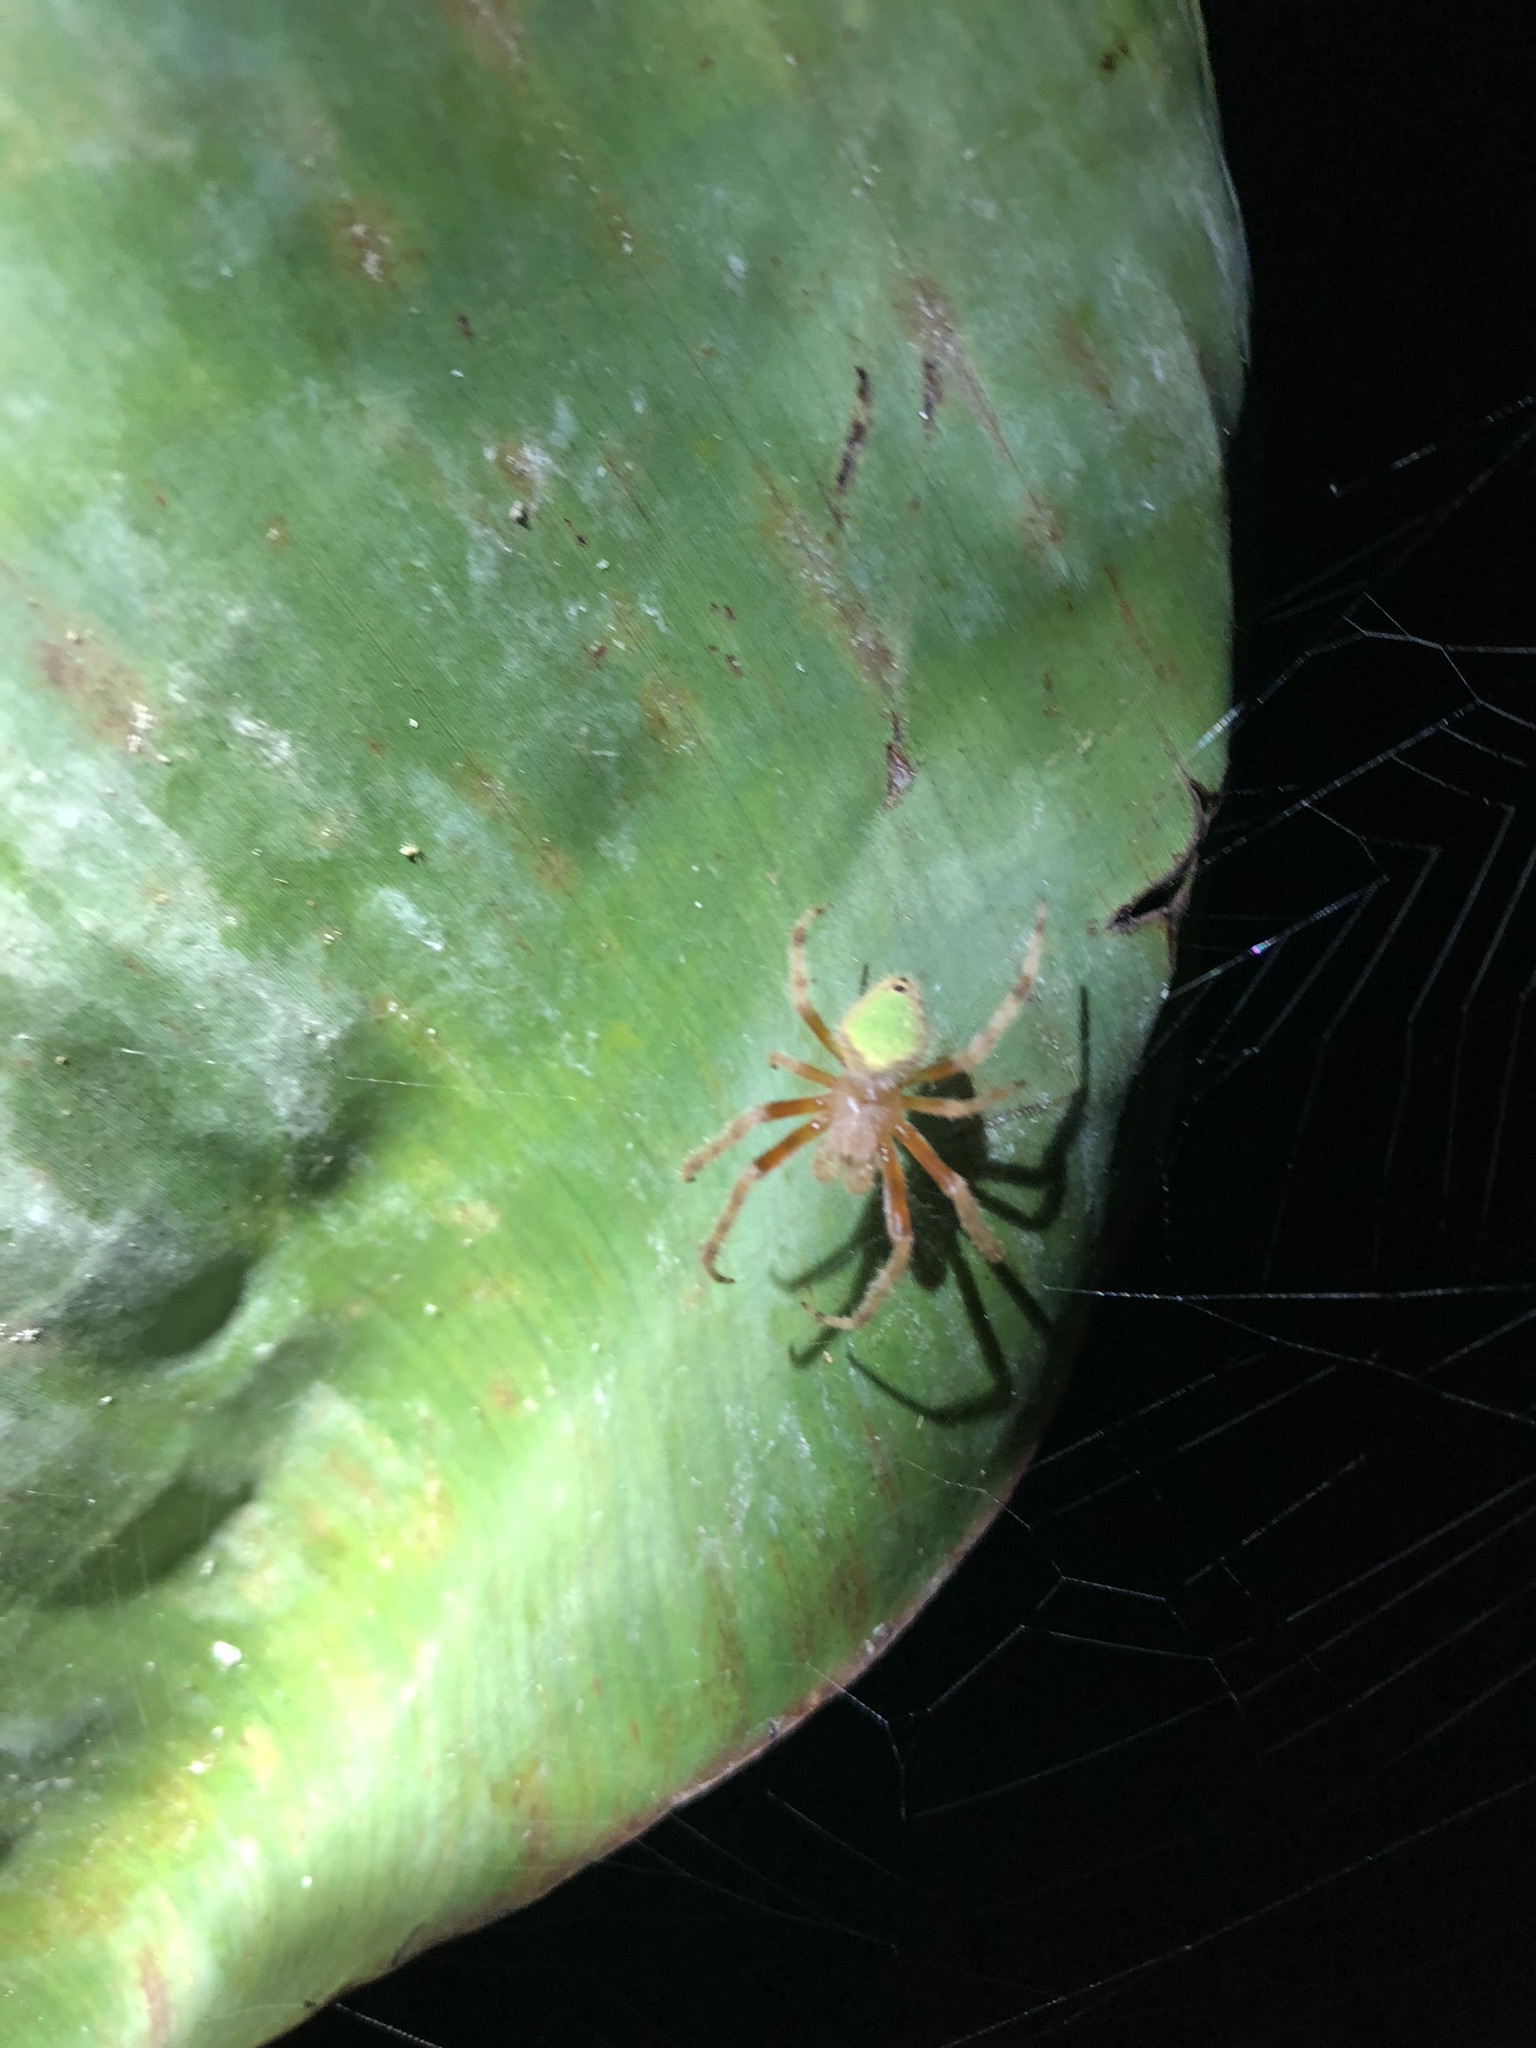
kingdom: Animalia
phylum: Arthropoda
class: Arachnida
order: Araneae
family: Araneidae
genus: Eriophora
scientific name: Eriophora ravilla
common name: Orb weavers
